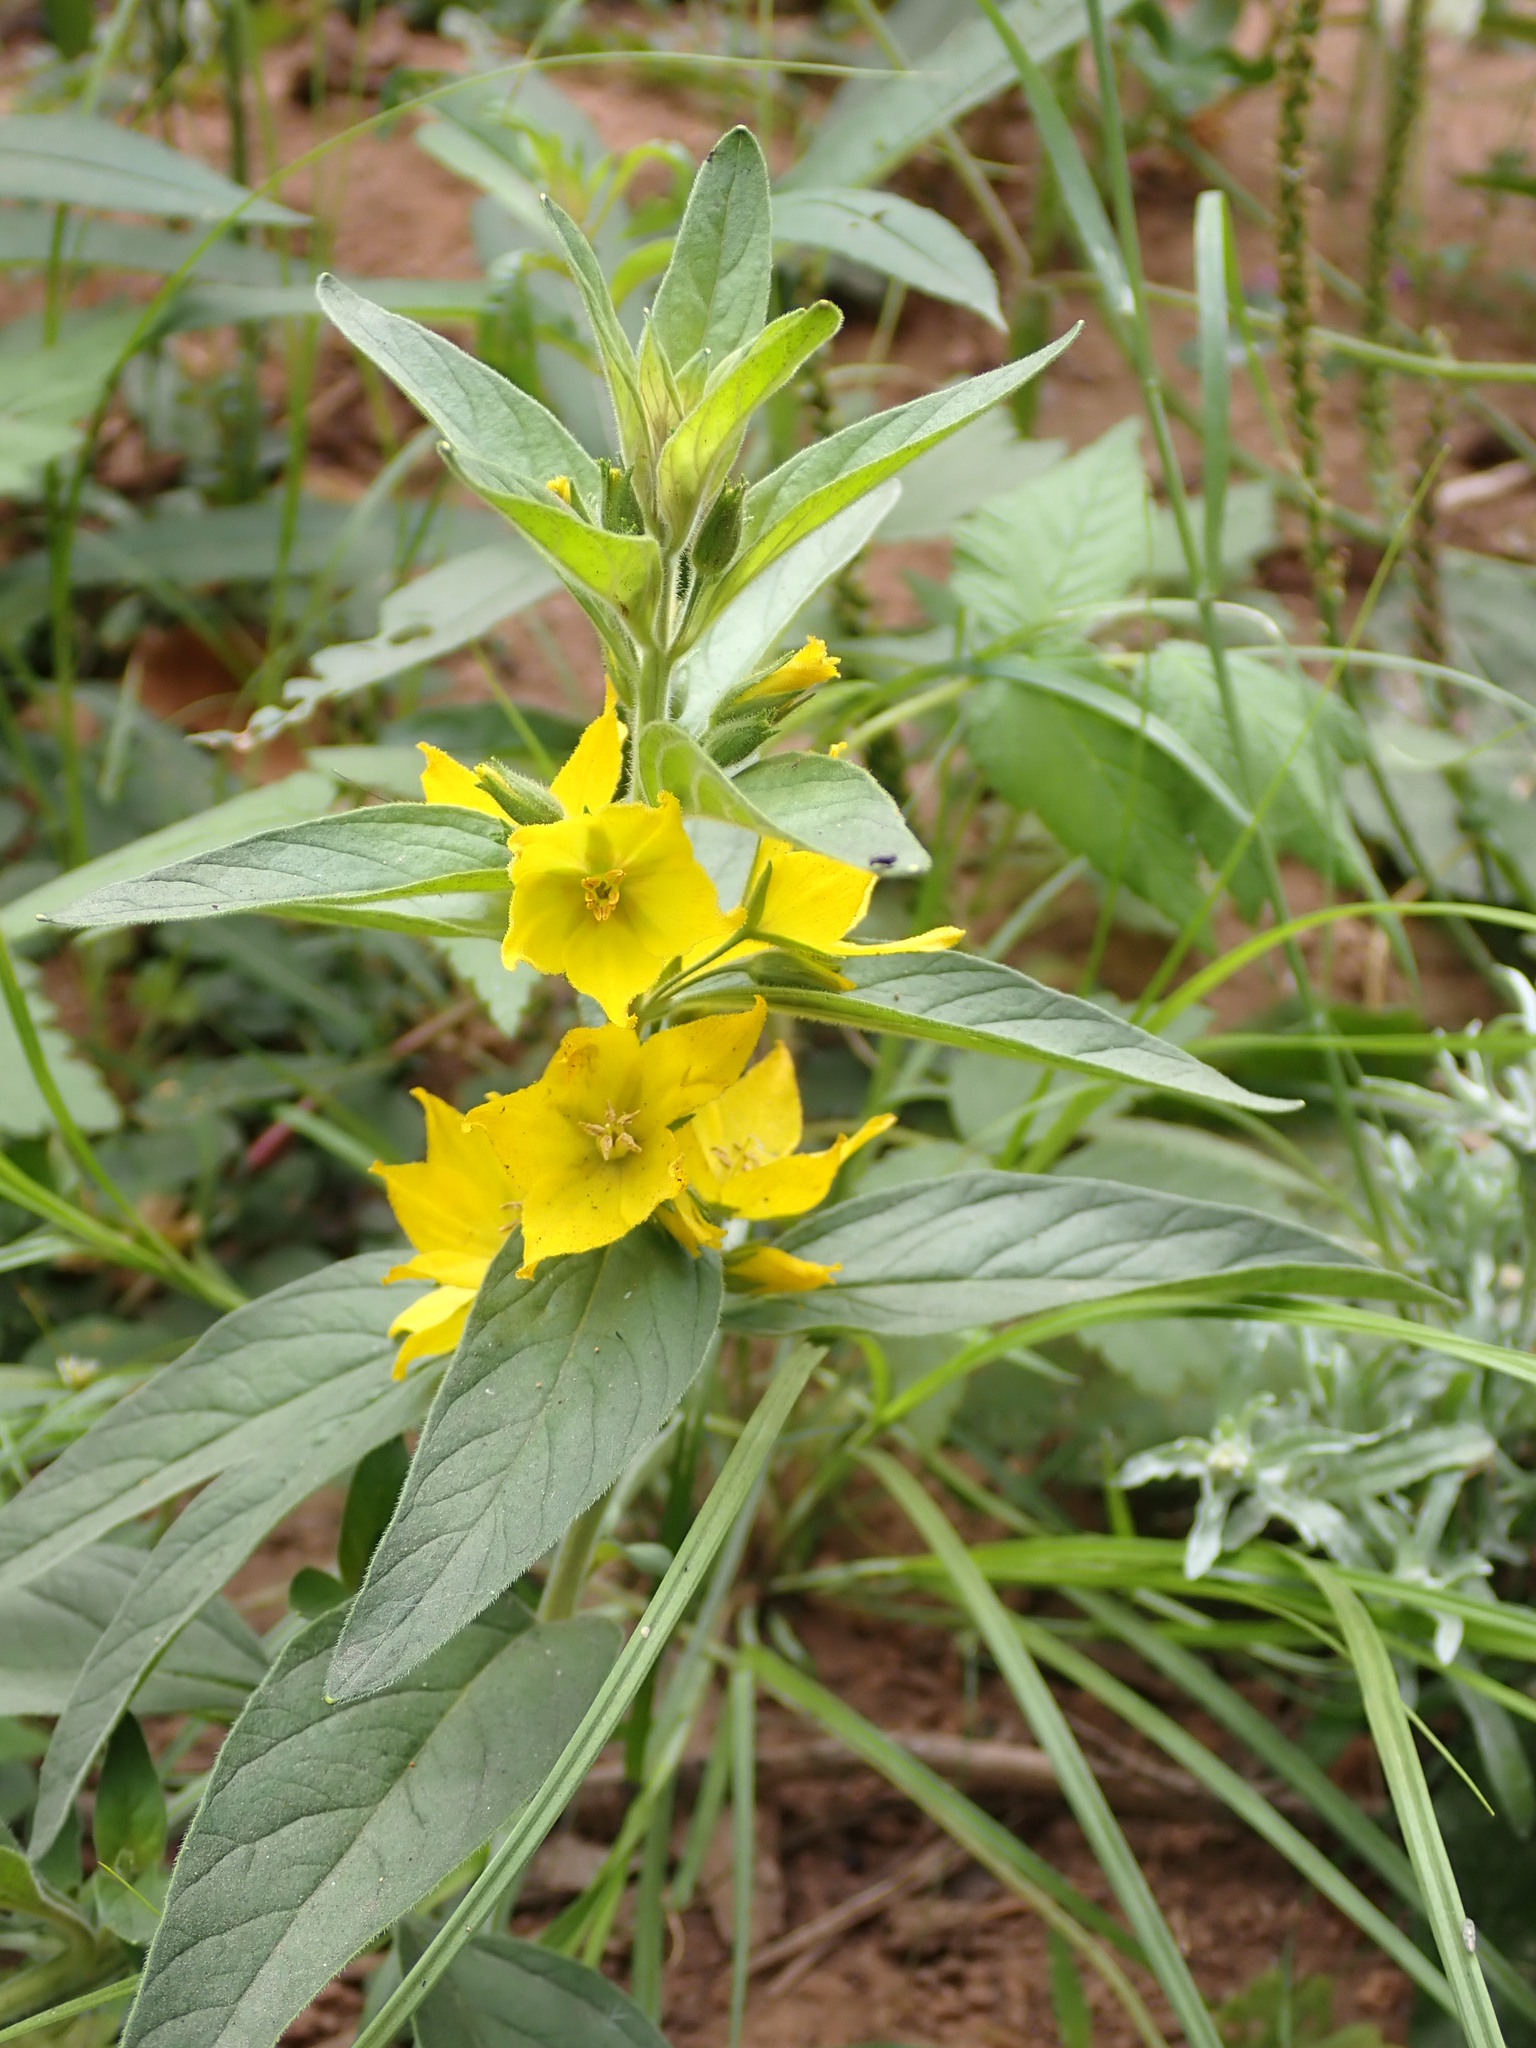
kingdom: Plantae
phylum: Tracheophyta
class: Magnoliopsida
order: Ericales
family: Primulaceae
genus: Lysimachia
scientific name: Lysimachia punctata
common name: Dotted loosestrife
